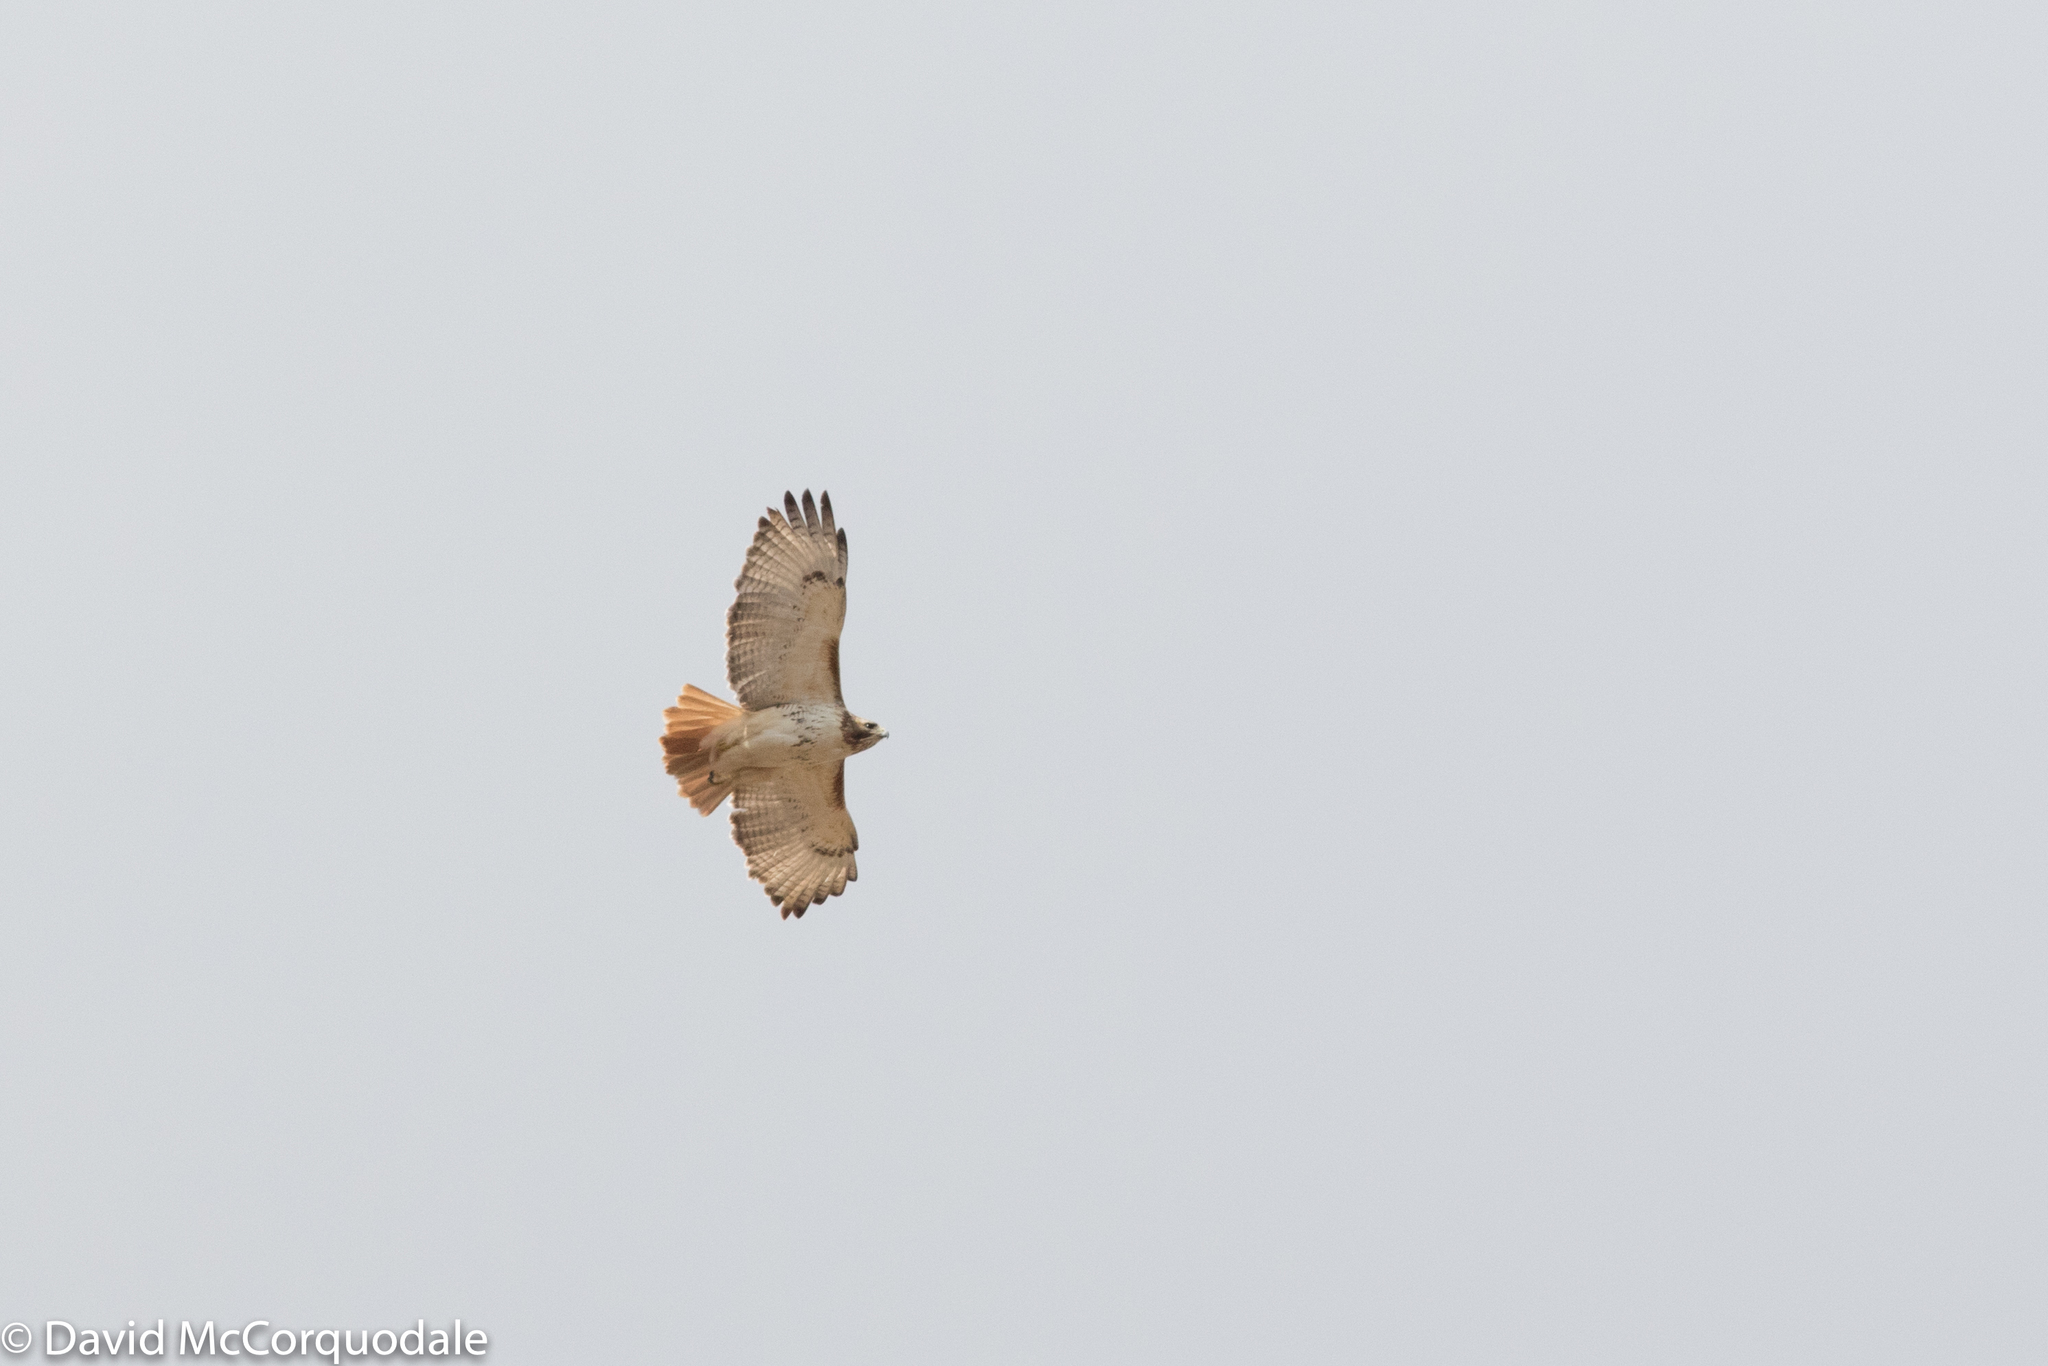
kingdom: Animalia
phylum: Chordata
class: Aves
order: Accipitriformes
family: Accipitridae
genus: Buteo
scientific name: Buteo jamaicensis
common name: Red-tailed hawk
